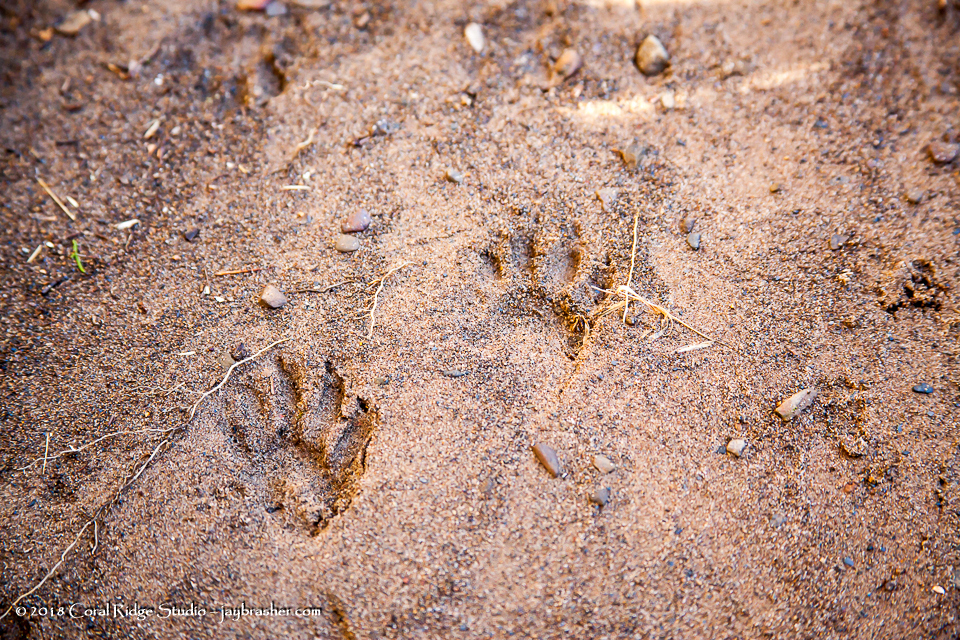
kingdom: Animalia
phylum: Chordata
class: Mammalia
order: Carnivora
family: Procyonidae
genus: Procyon
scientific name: Procyon lotor
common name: Raccoon
